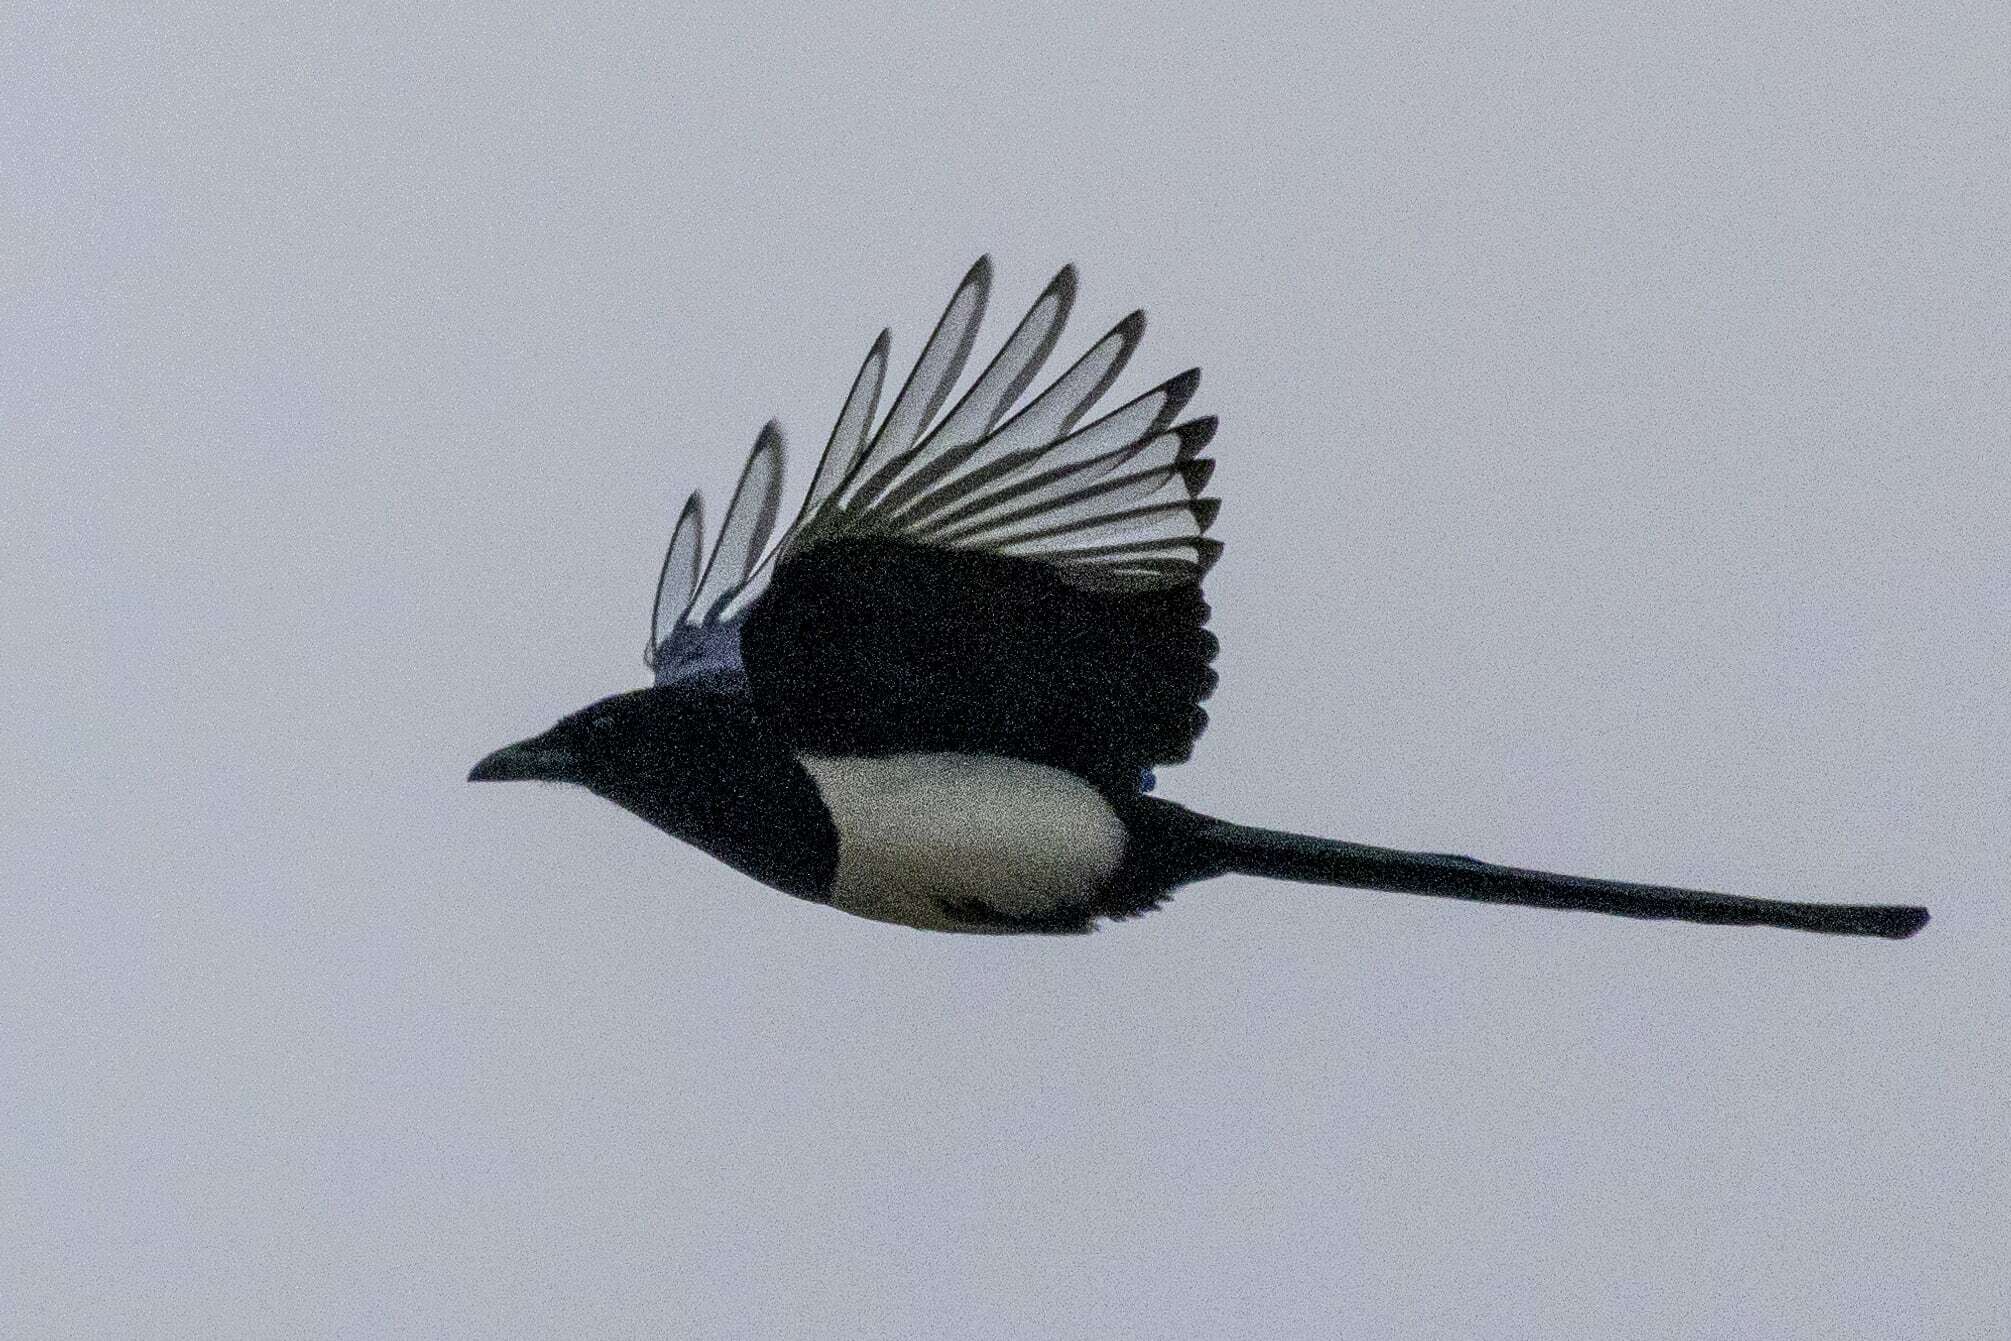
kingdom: Animalia
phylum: Chordata
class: Aves
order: Passeriformes
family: Corvidae
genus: Pica
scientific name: Pica pica
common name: Eurasian magpie
